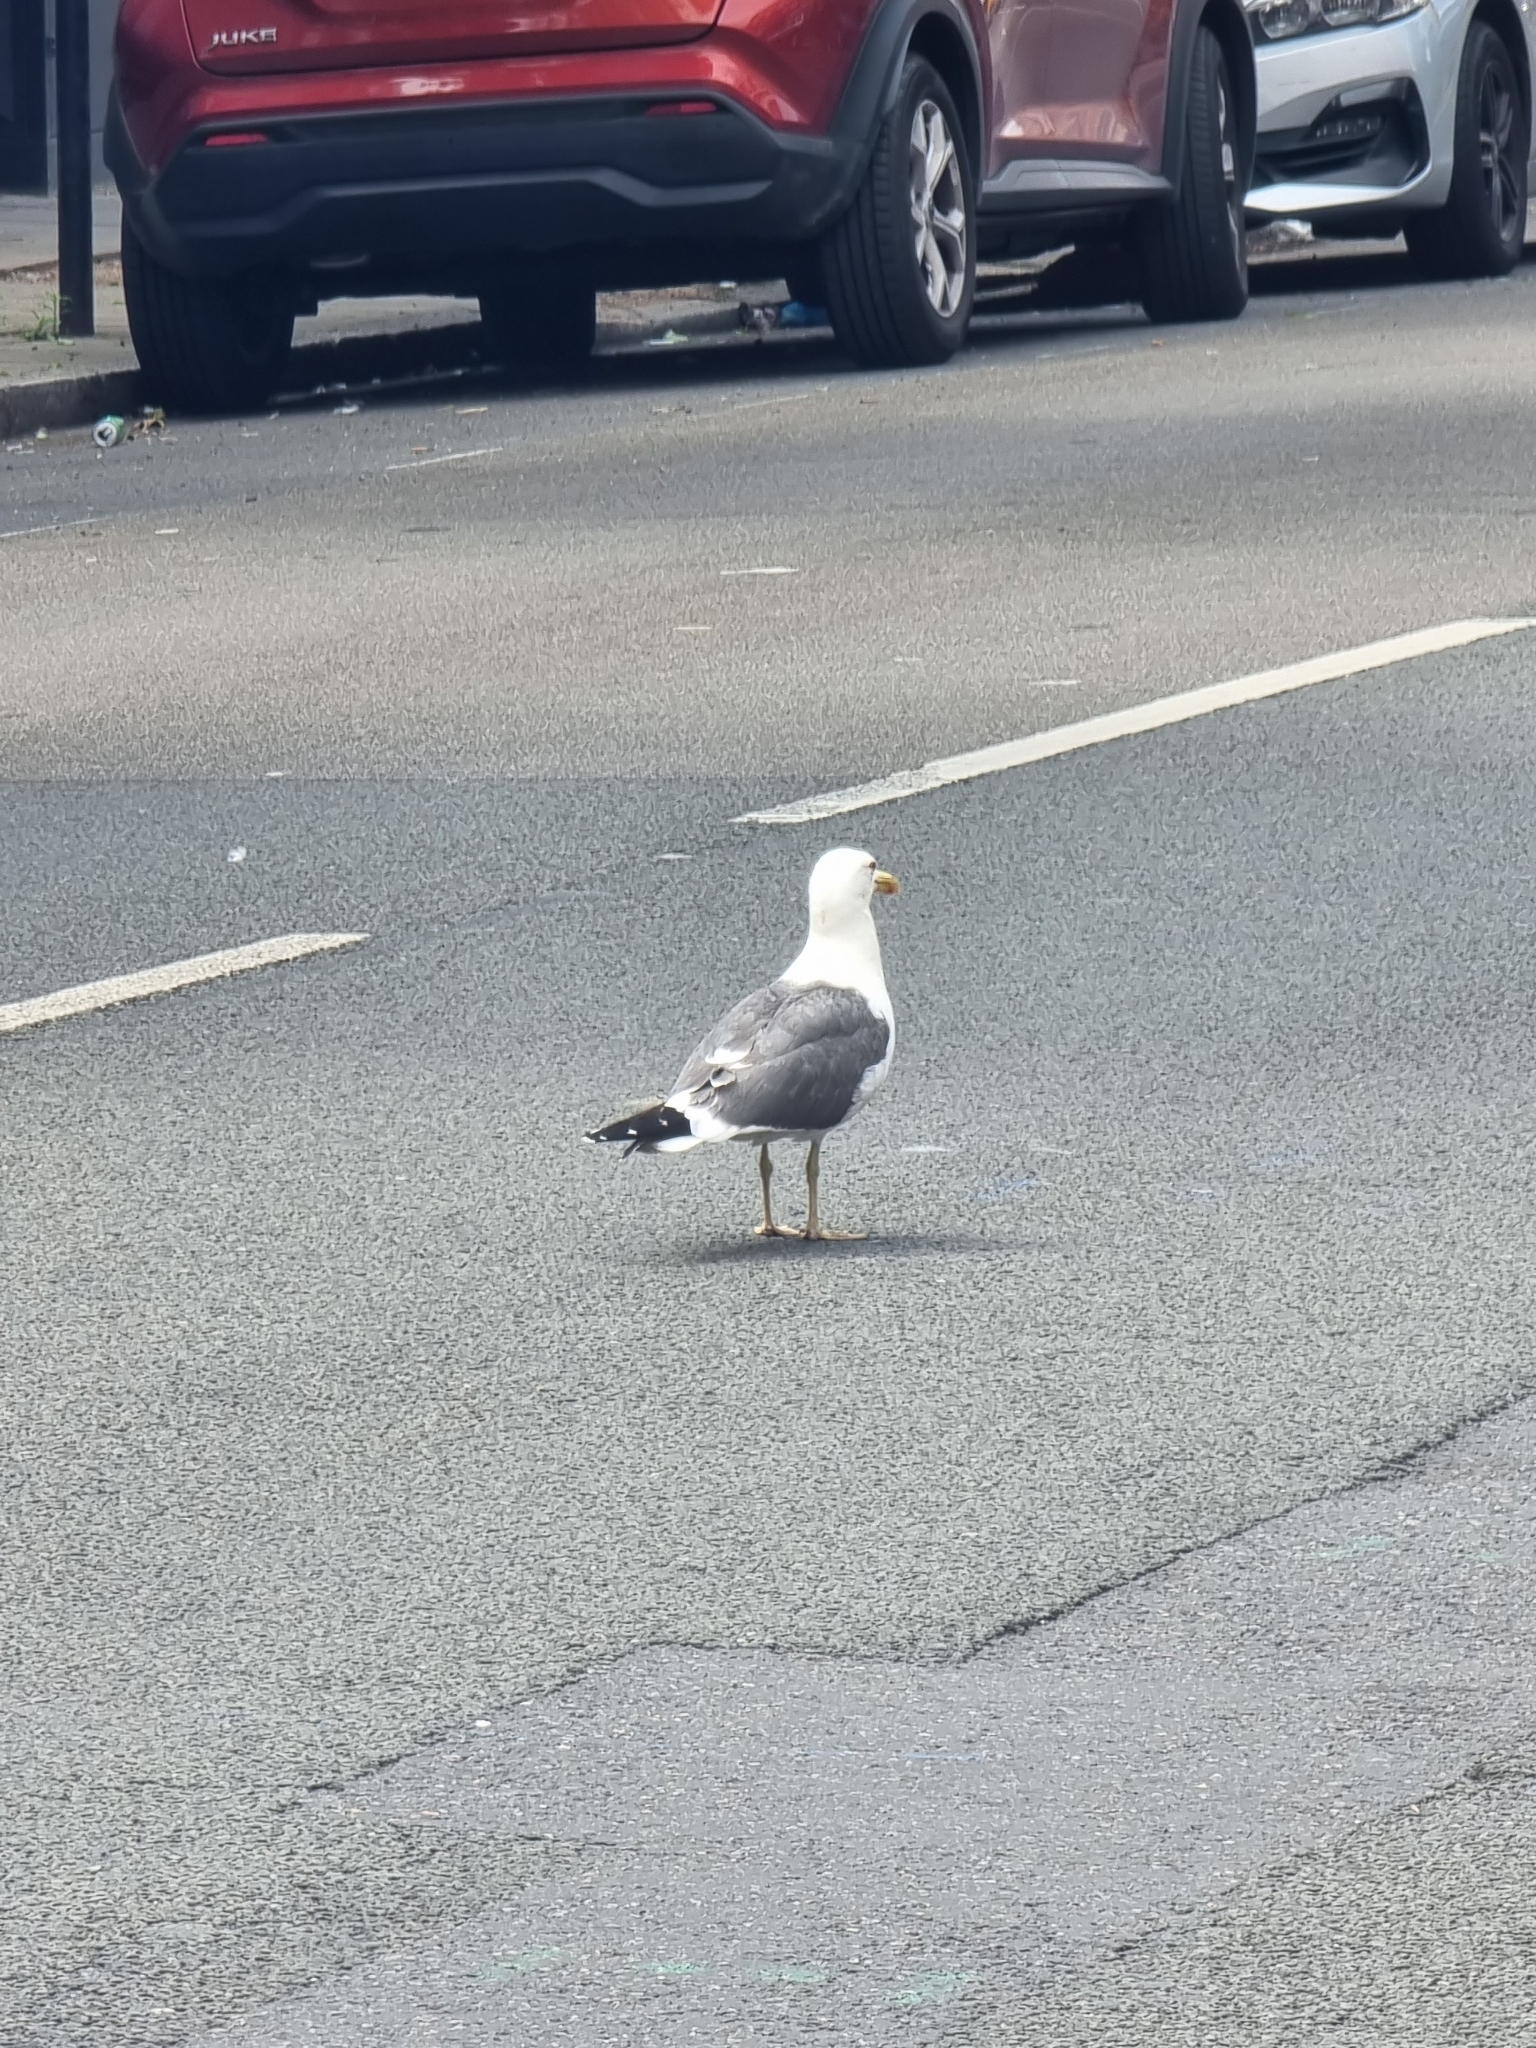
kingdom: Animalia
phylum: Chordata
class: Aves
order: Charadriiformes
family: Laridae
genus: Larus
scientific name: Larus fuscus
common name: Lesser black-backed gull
